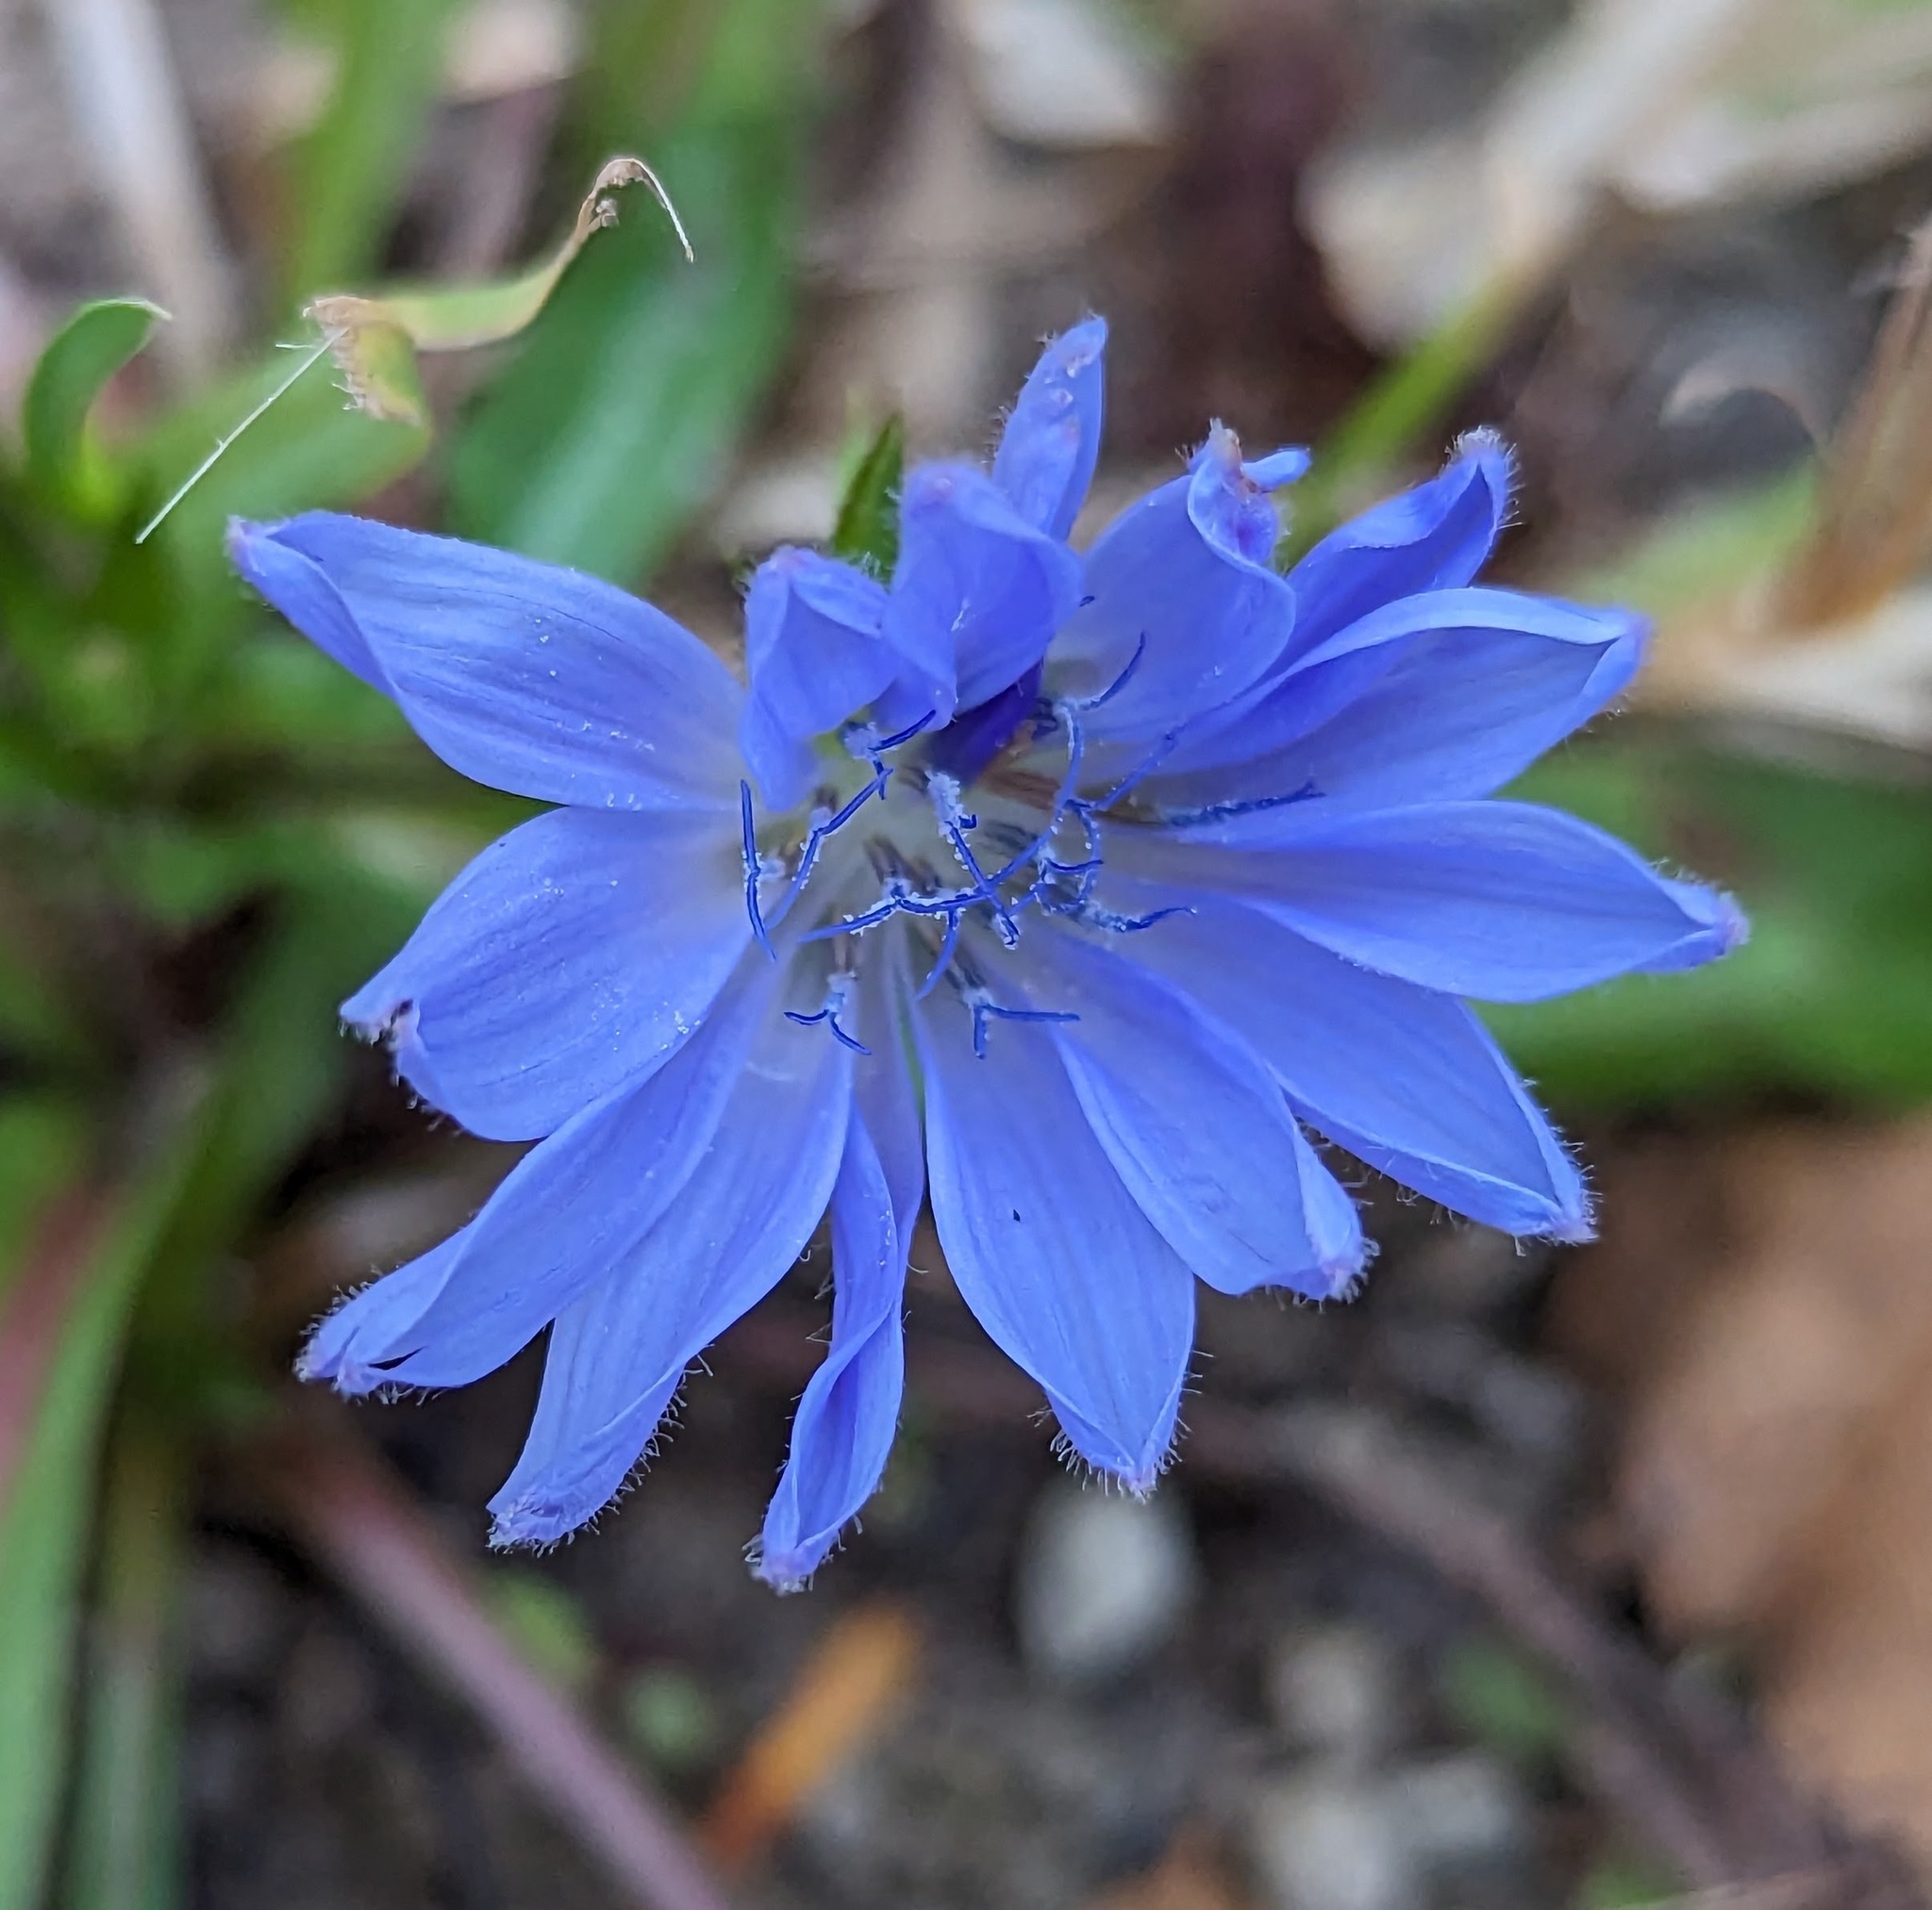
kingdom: Plantae
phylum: Tracheophyta
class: Magnoliopsida
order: Asterales
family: Asteraceae
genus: Cichorium
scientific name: Cichorium intybus
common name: Chicory
